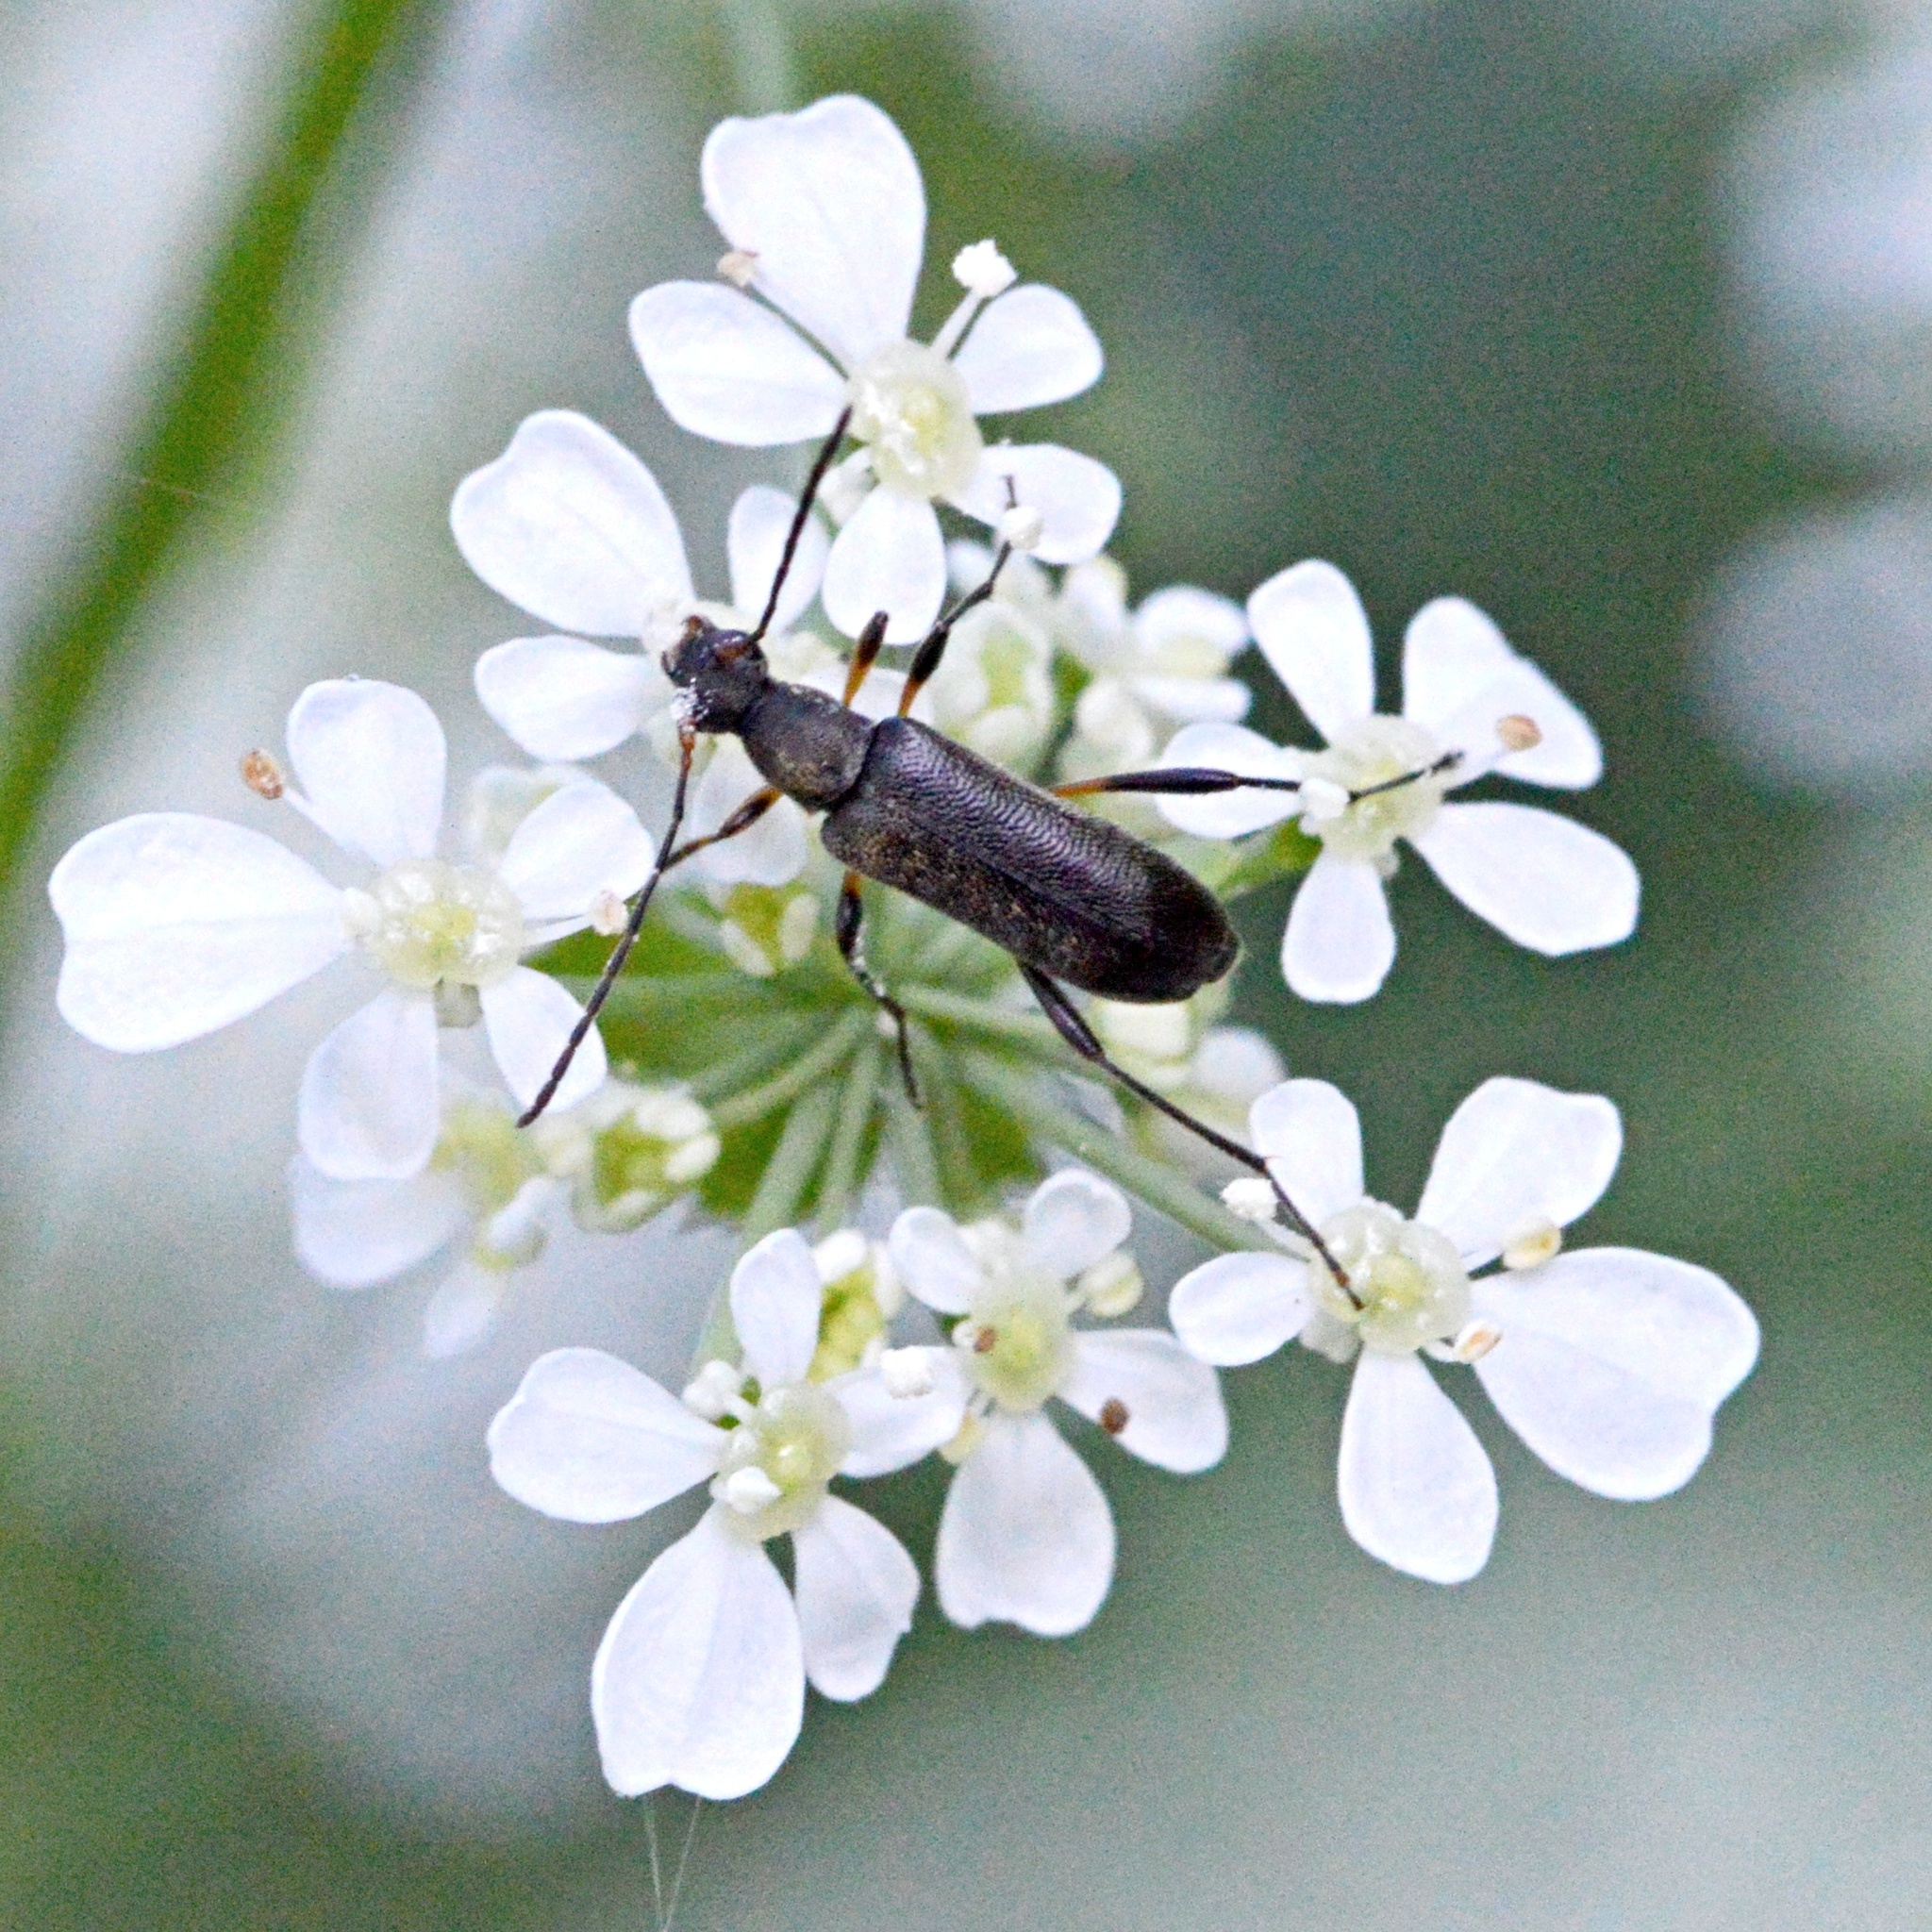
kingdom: Animalia
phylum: Arthropoda
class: Insecta
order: Coleoptera
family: Cerambycidae
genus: Grammoptera
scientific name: Grammoptera ruficornis
